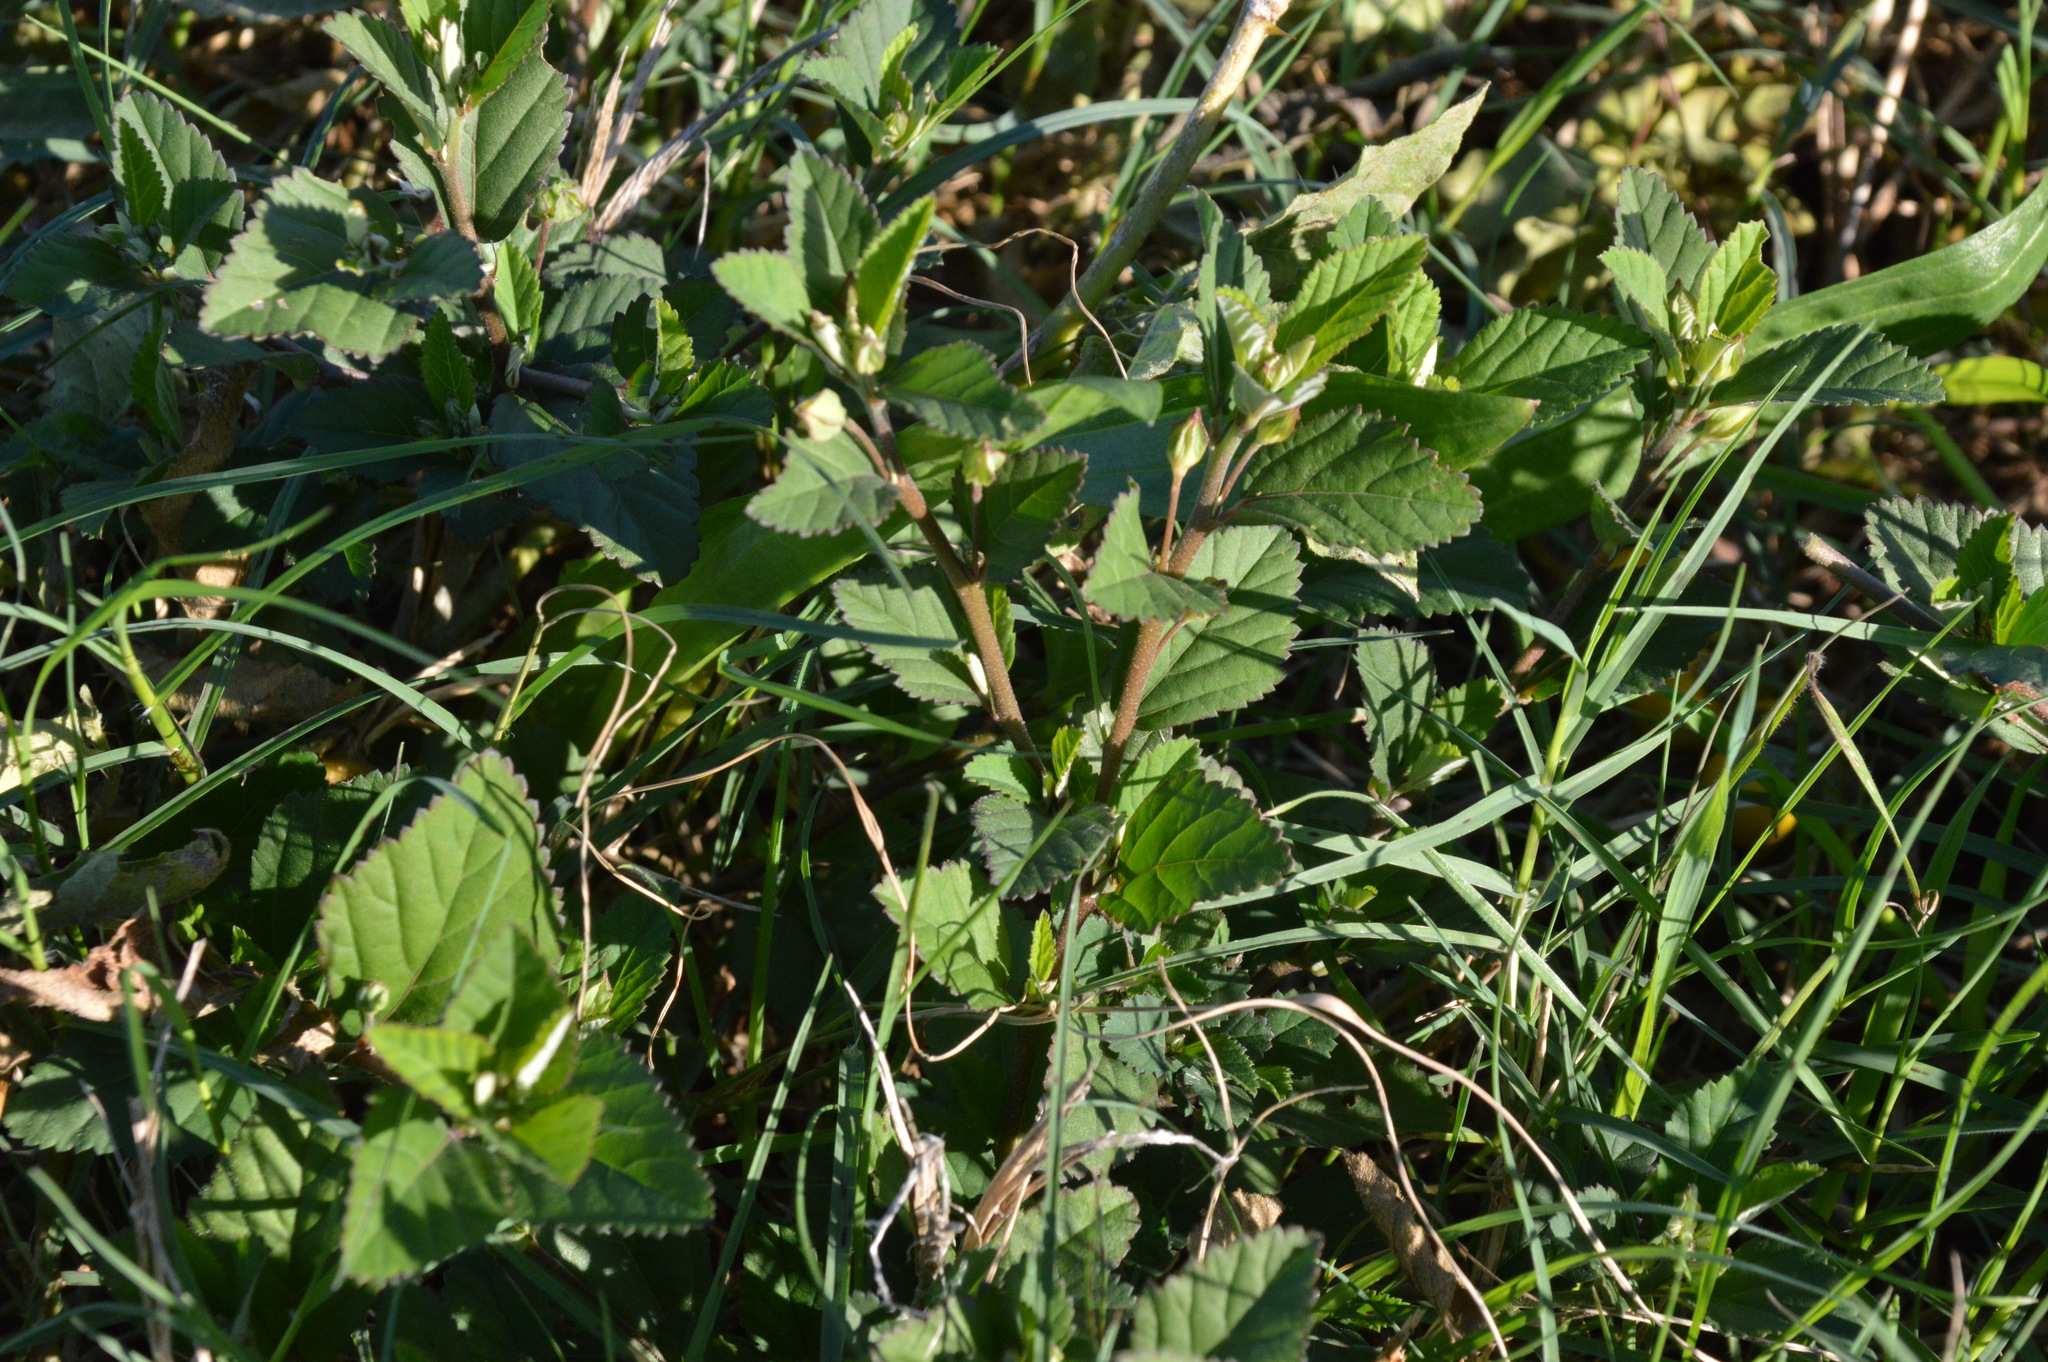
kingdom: Plantae
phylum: Tracheophyta
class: Magnoliopsida
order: Malvales
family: Malvaceae
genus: Sida
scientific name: Sida rhombifolia
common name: Queensland-hemp
